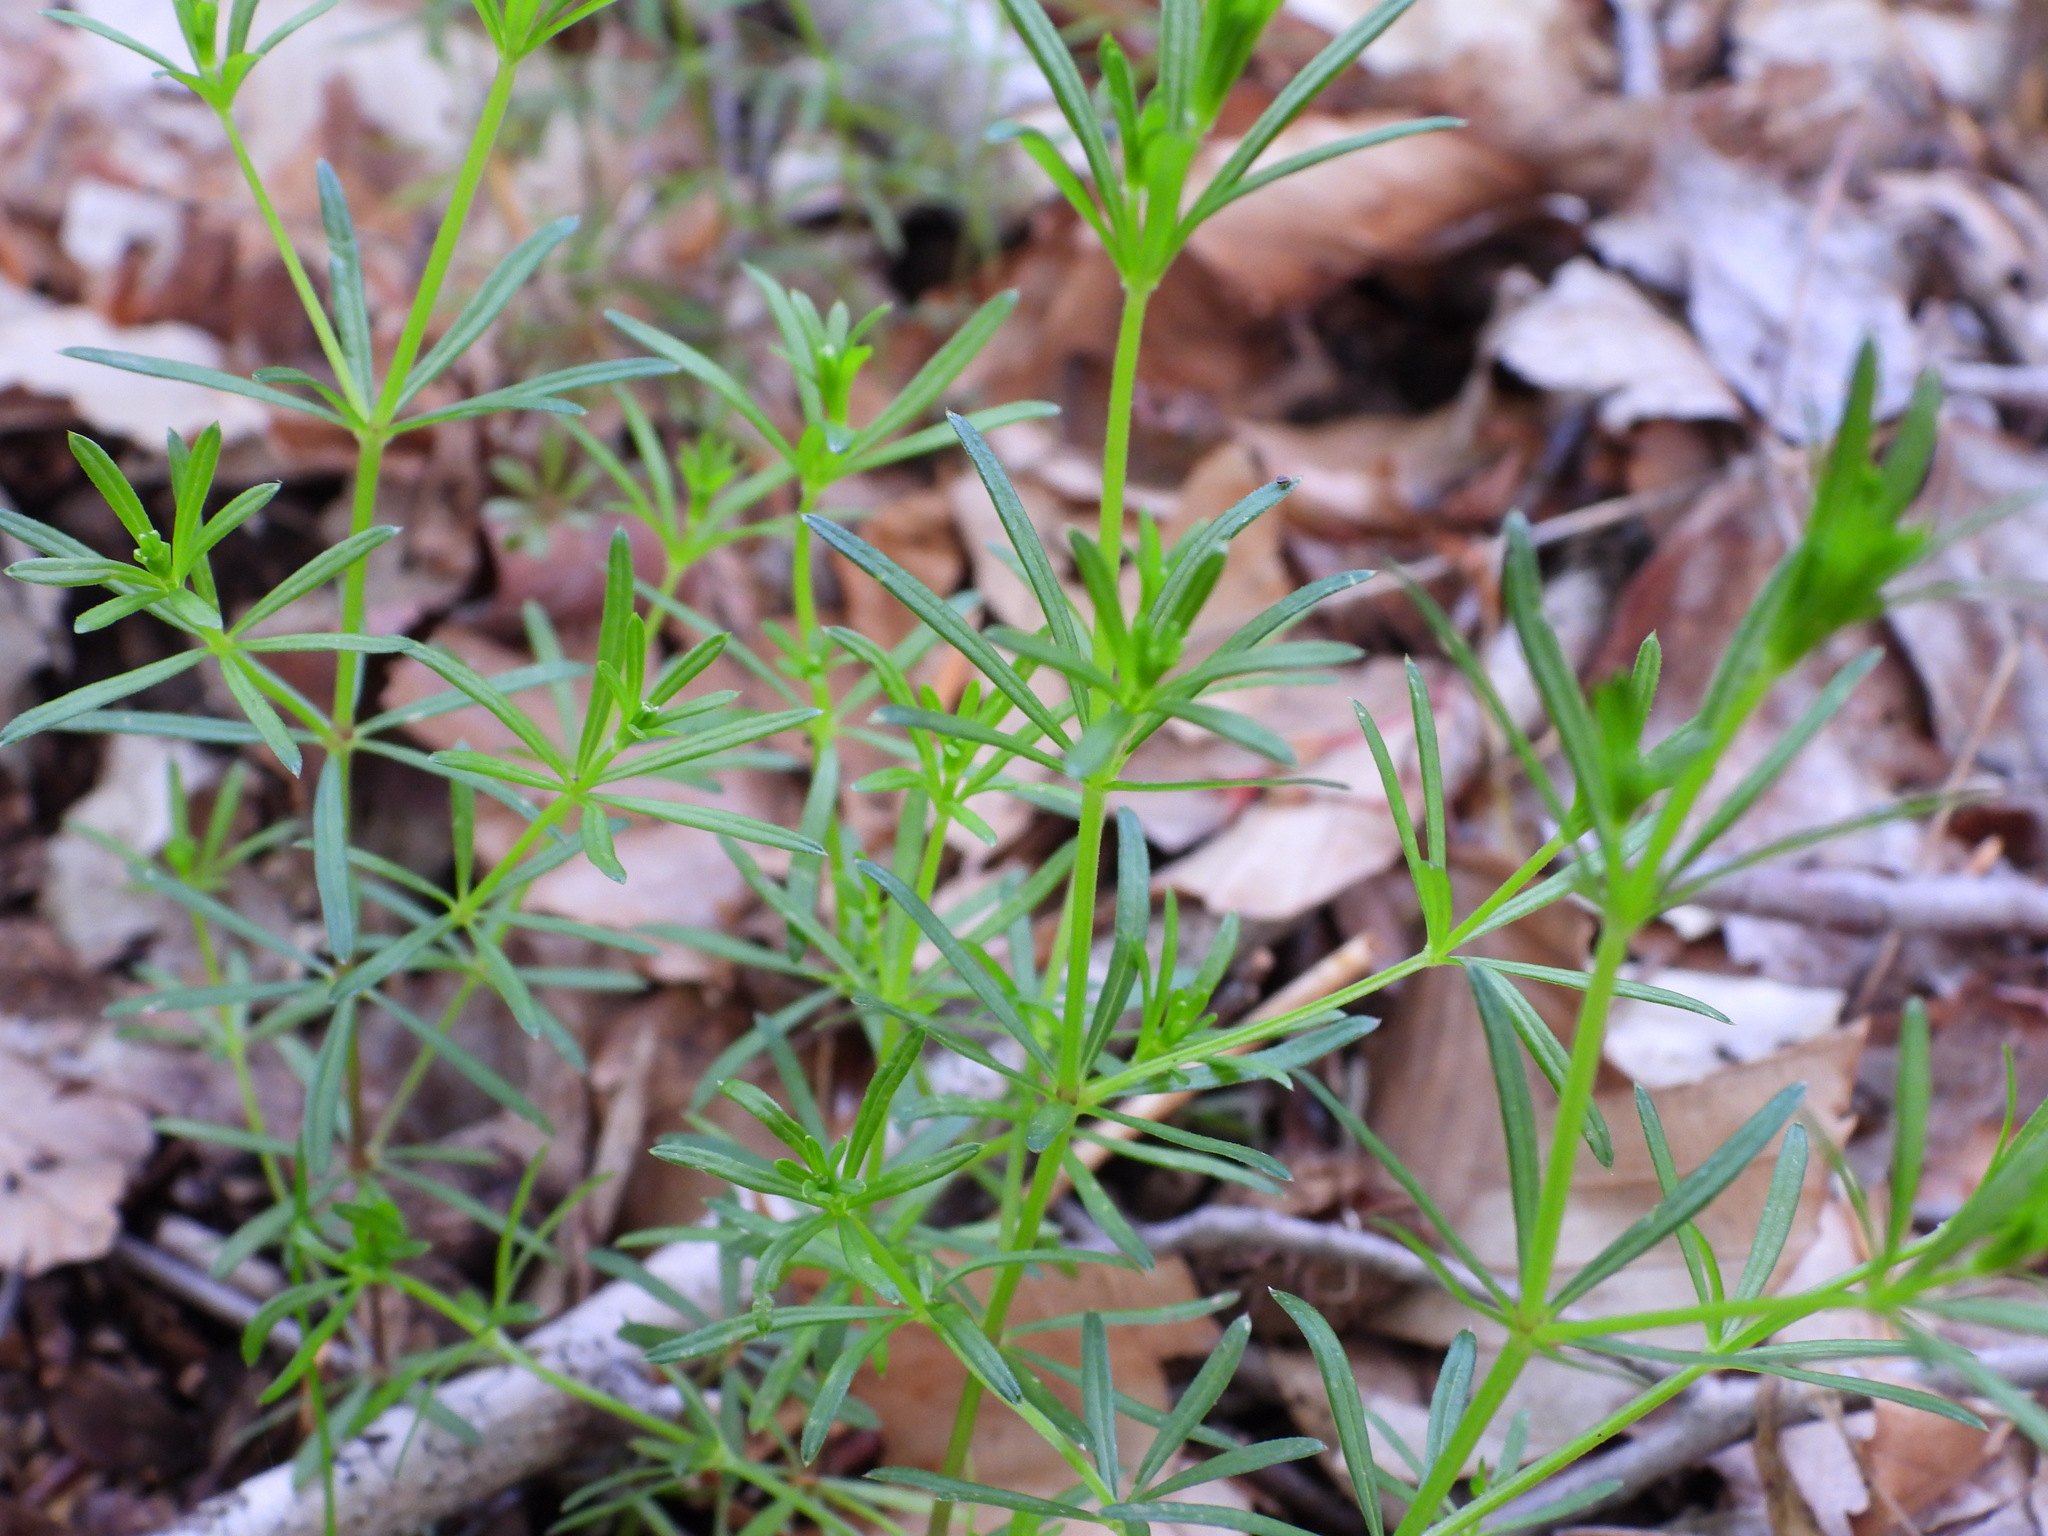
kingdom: Plantae
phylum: Tracheophyta
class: Magnoliopsida
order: Gentianales
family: Rubiaceae
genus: Galium
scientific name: Galium concinnum
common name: Shining bedstraw
